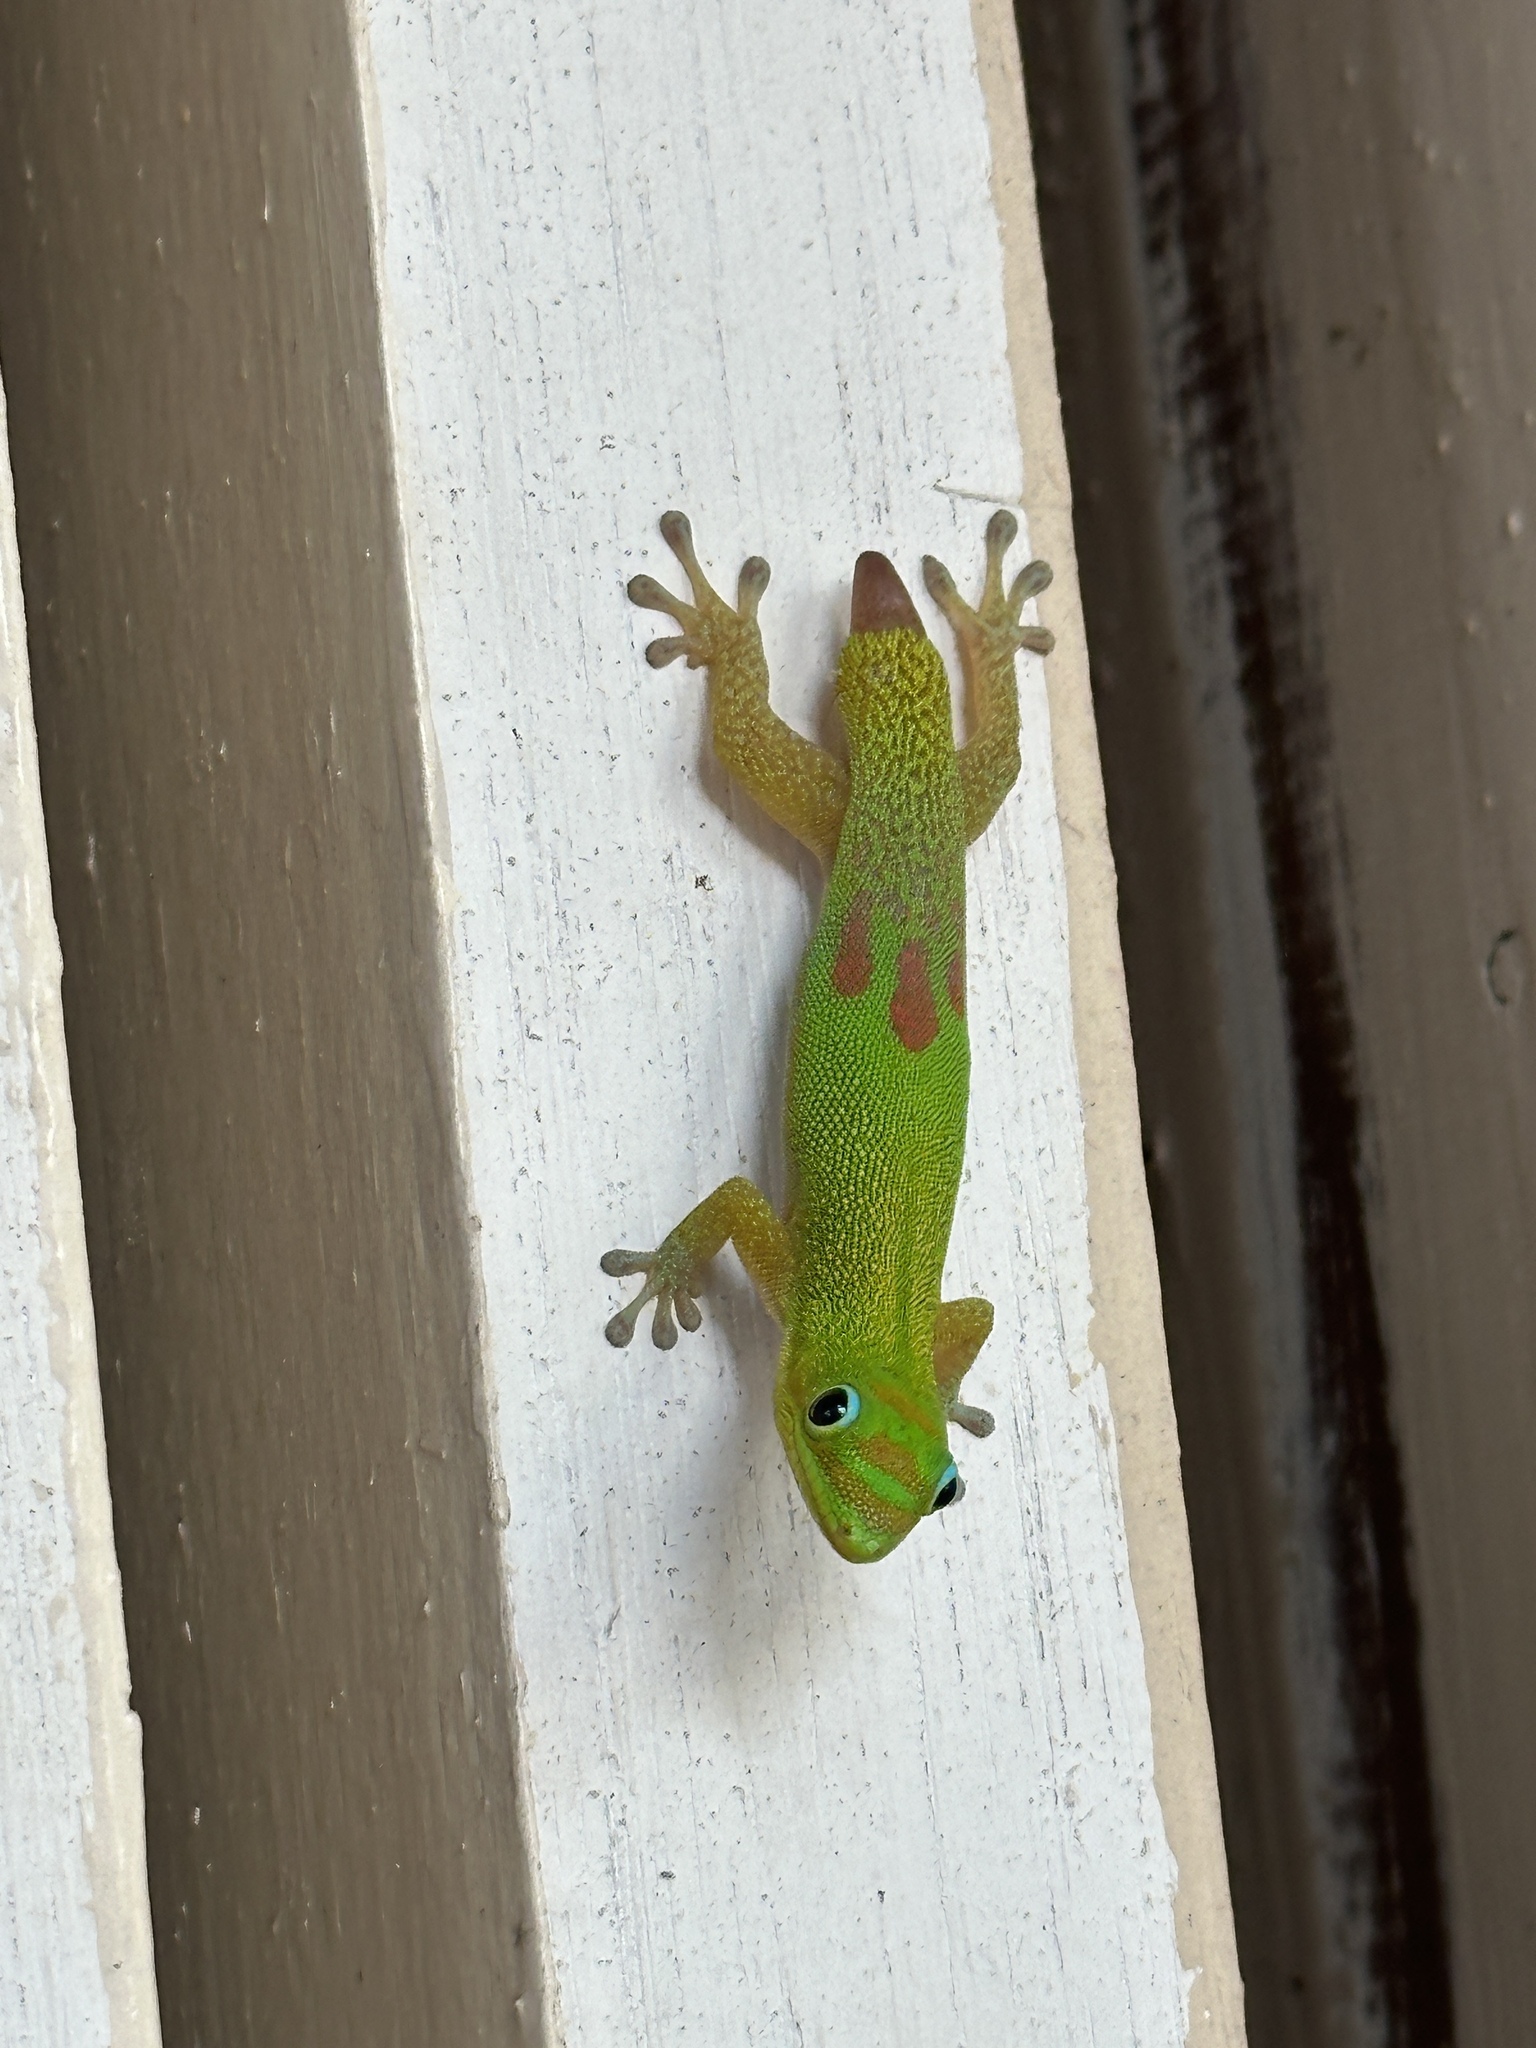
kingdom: Animalia
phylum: Chordata
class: Squamata
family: Gekkonidae
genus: Phelsuma
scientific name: Phelsuma laticauda
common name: Gold dust day gecko
